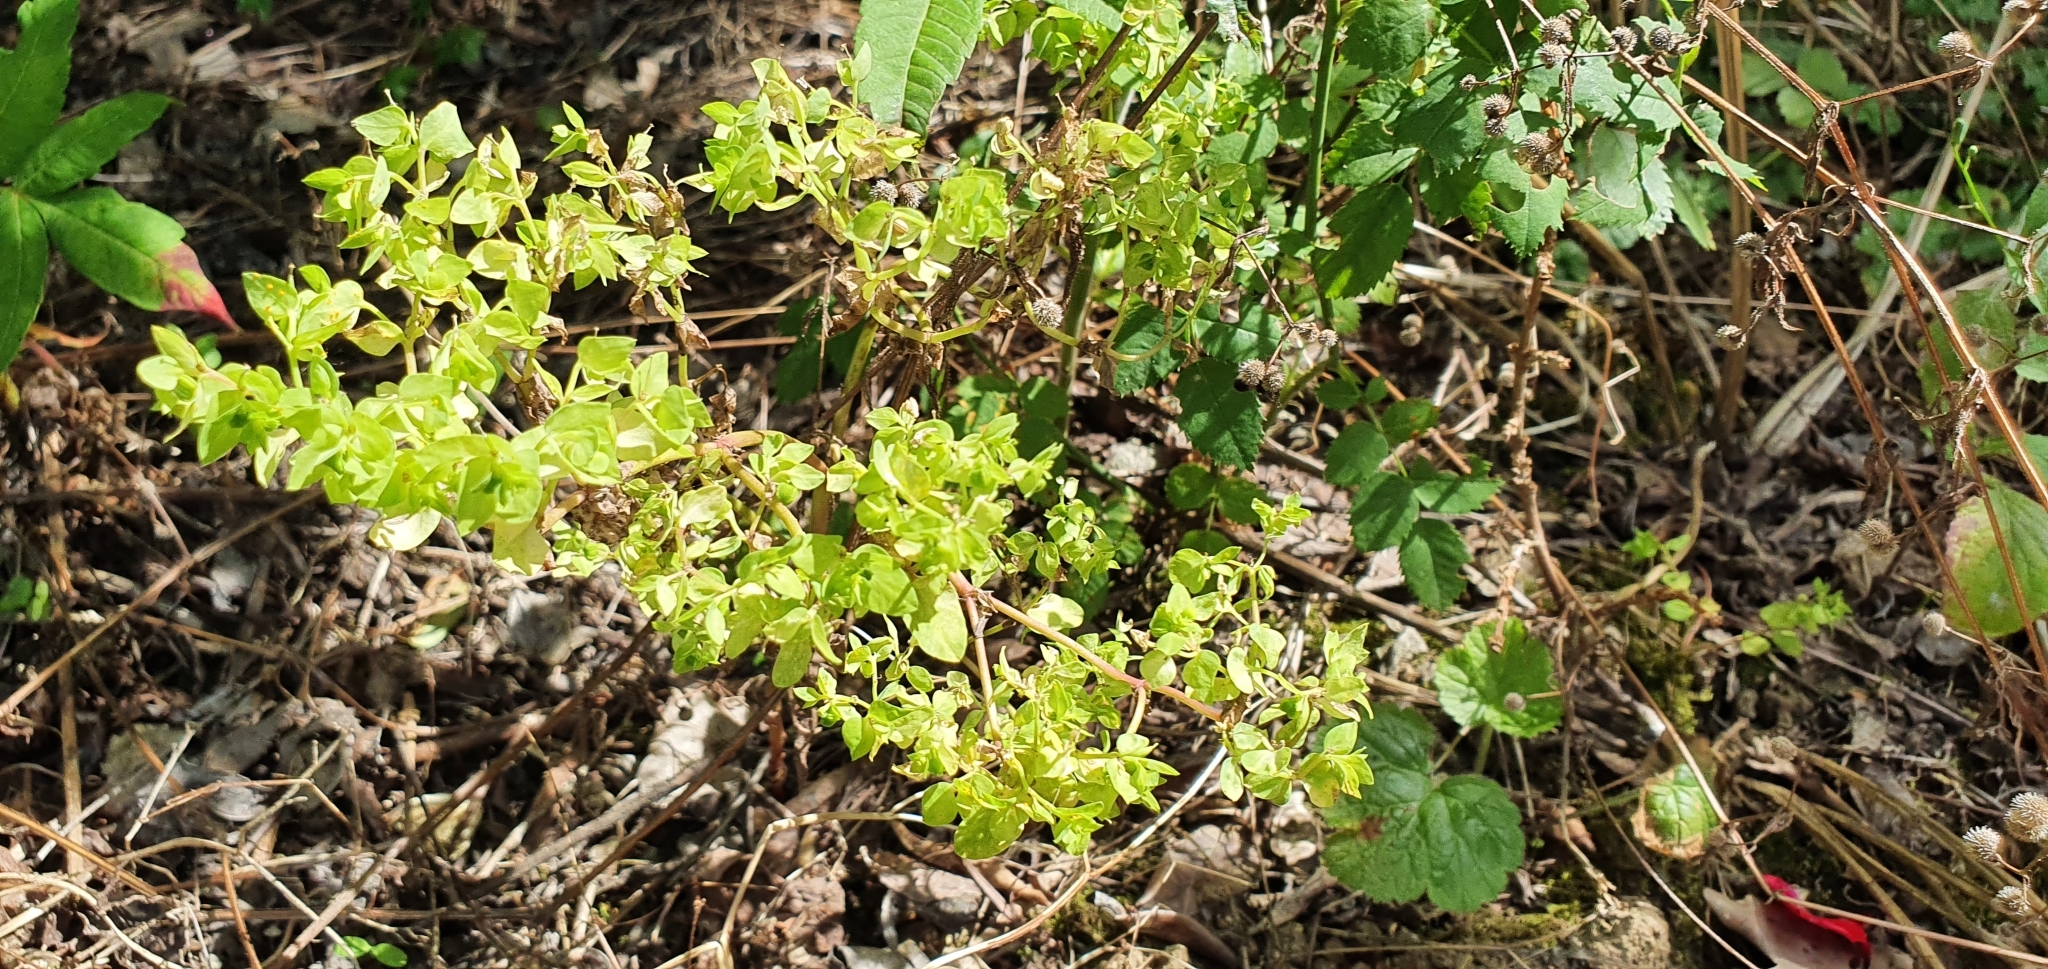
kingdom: Plantae
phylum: Tracheophyta
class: Magnoliopsida
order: Malpighiales
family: Euphorbiaceae
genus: Euphorbia
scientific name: Euphorbia peplus
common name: Petty spurge
